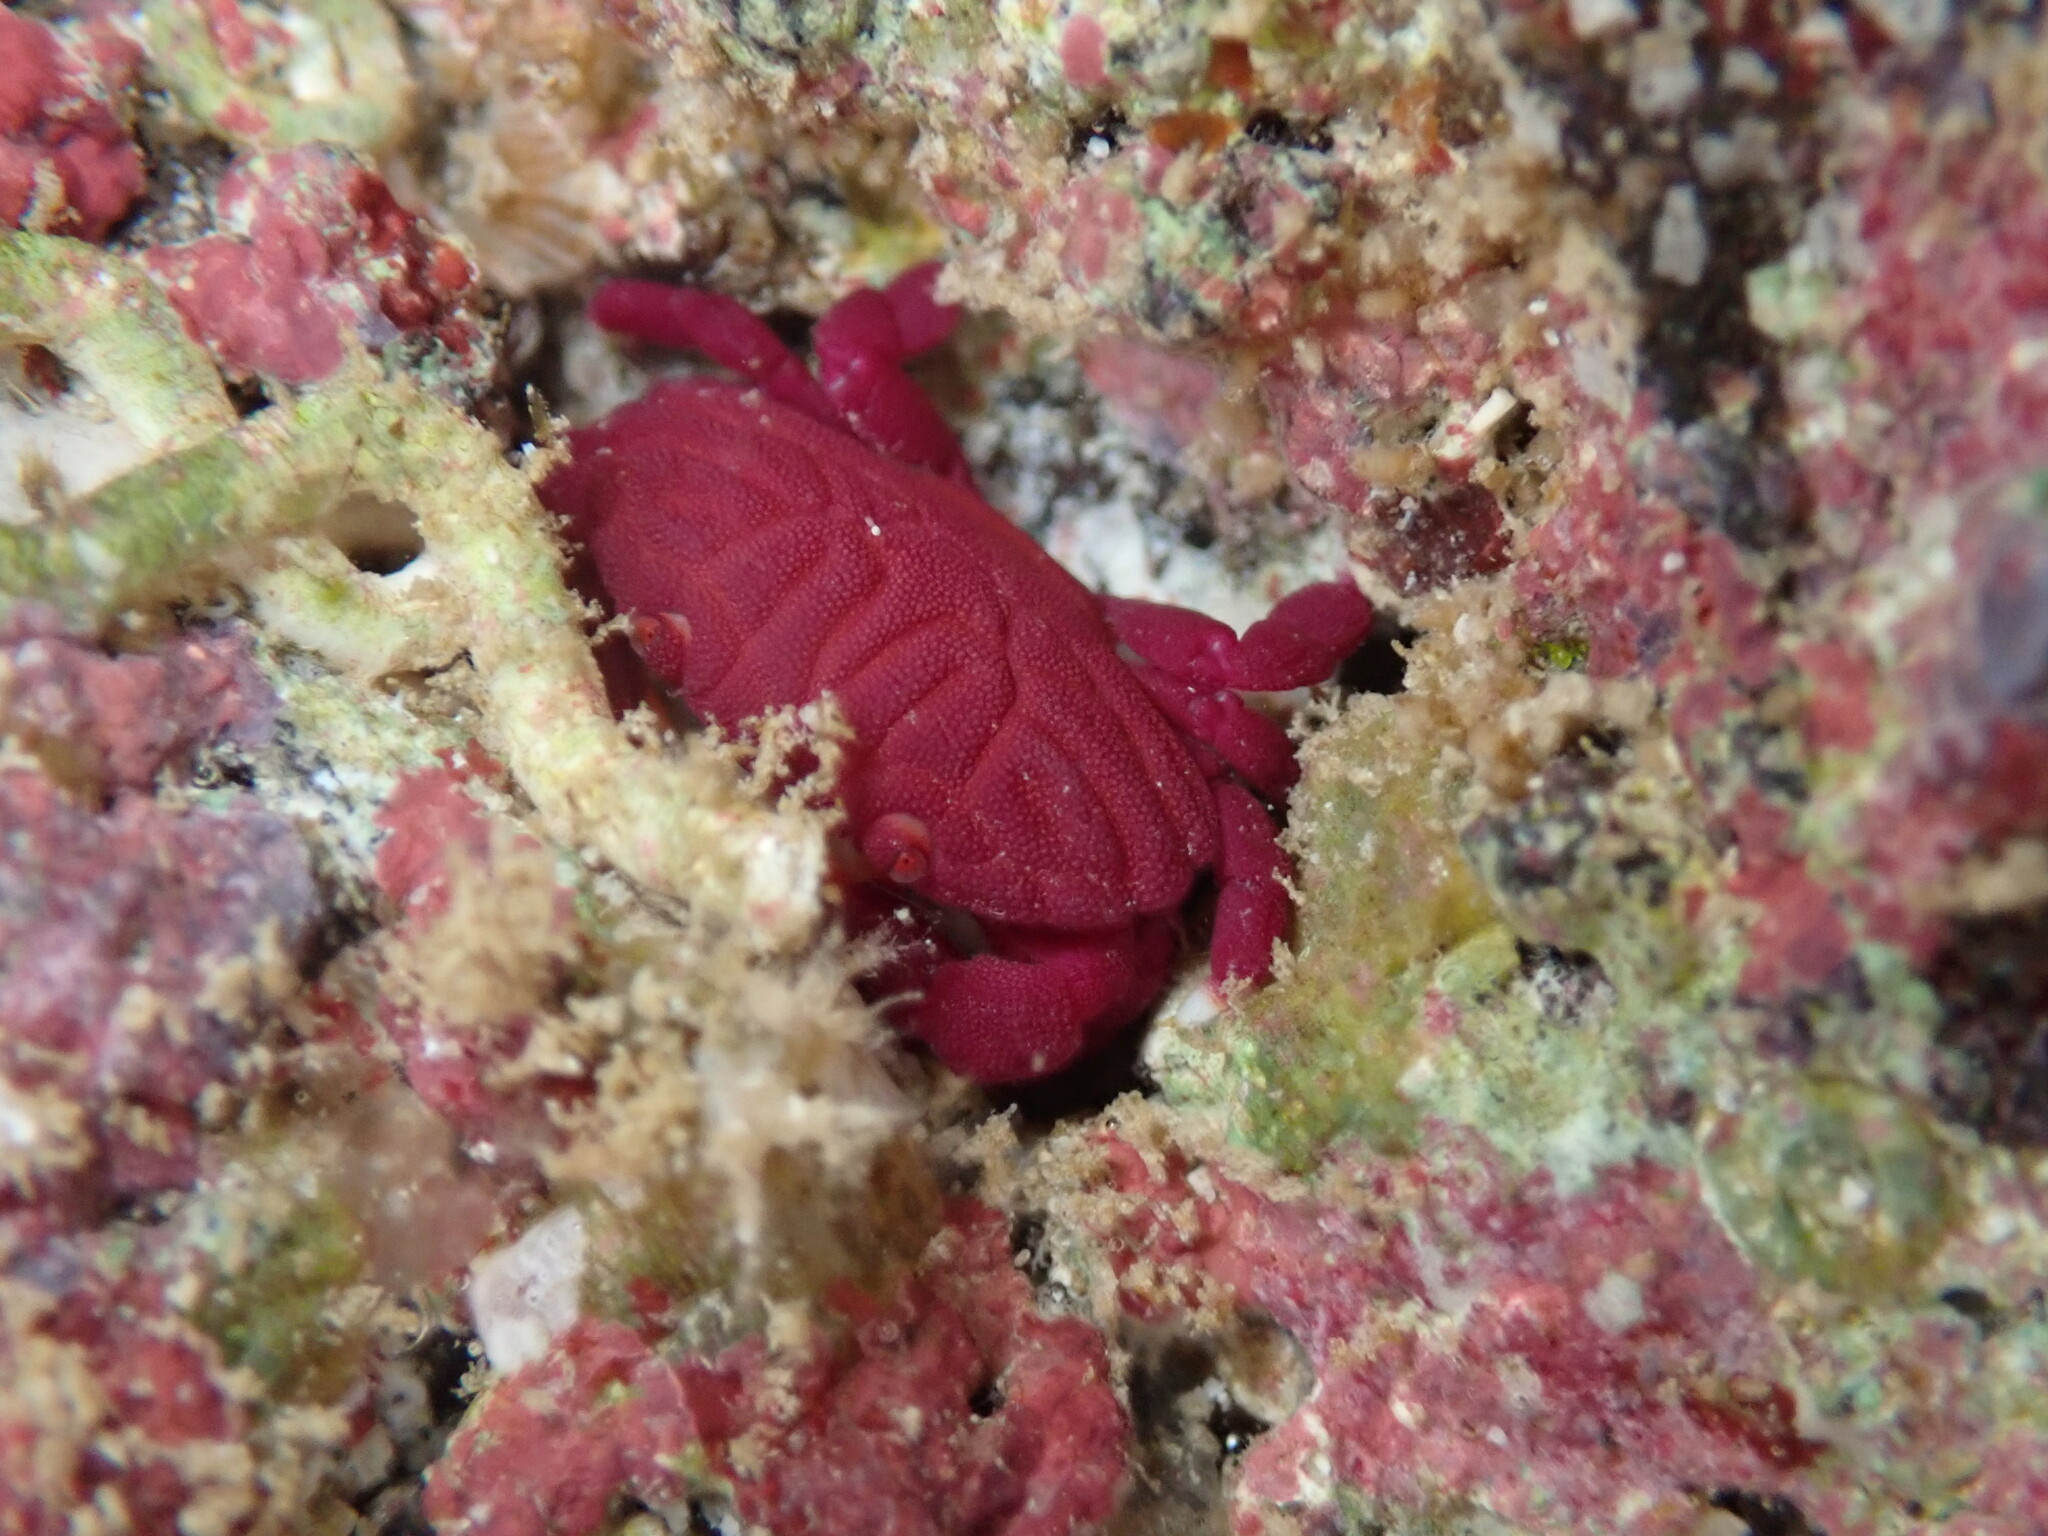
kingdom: Animalia
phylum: Arthropoda
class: Malacostraca
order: Decapoda
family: Xanthidae
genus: Liomera
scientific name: Liomera rugata
